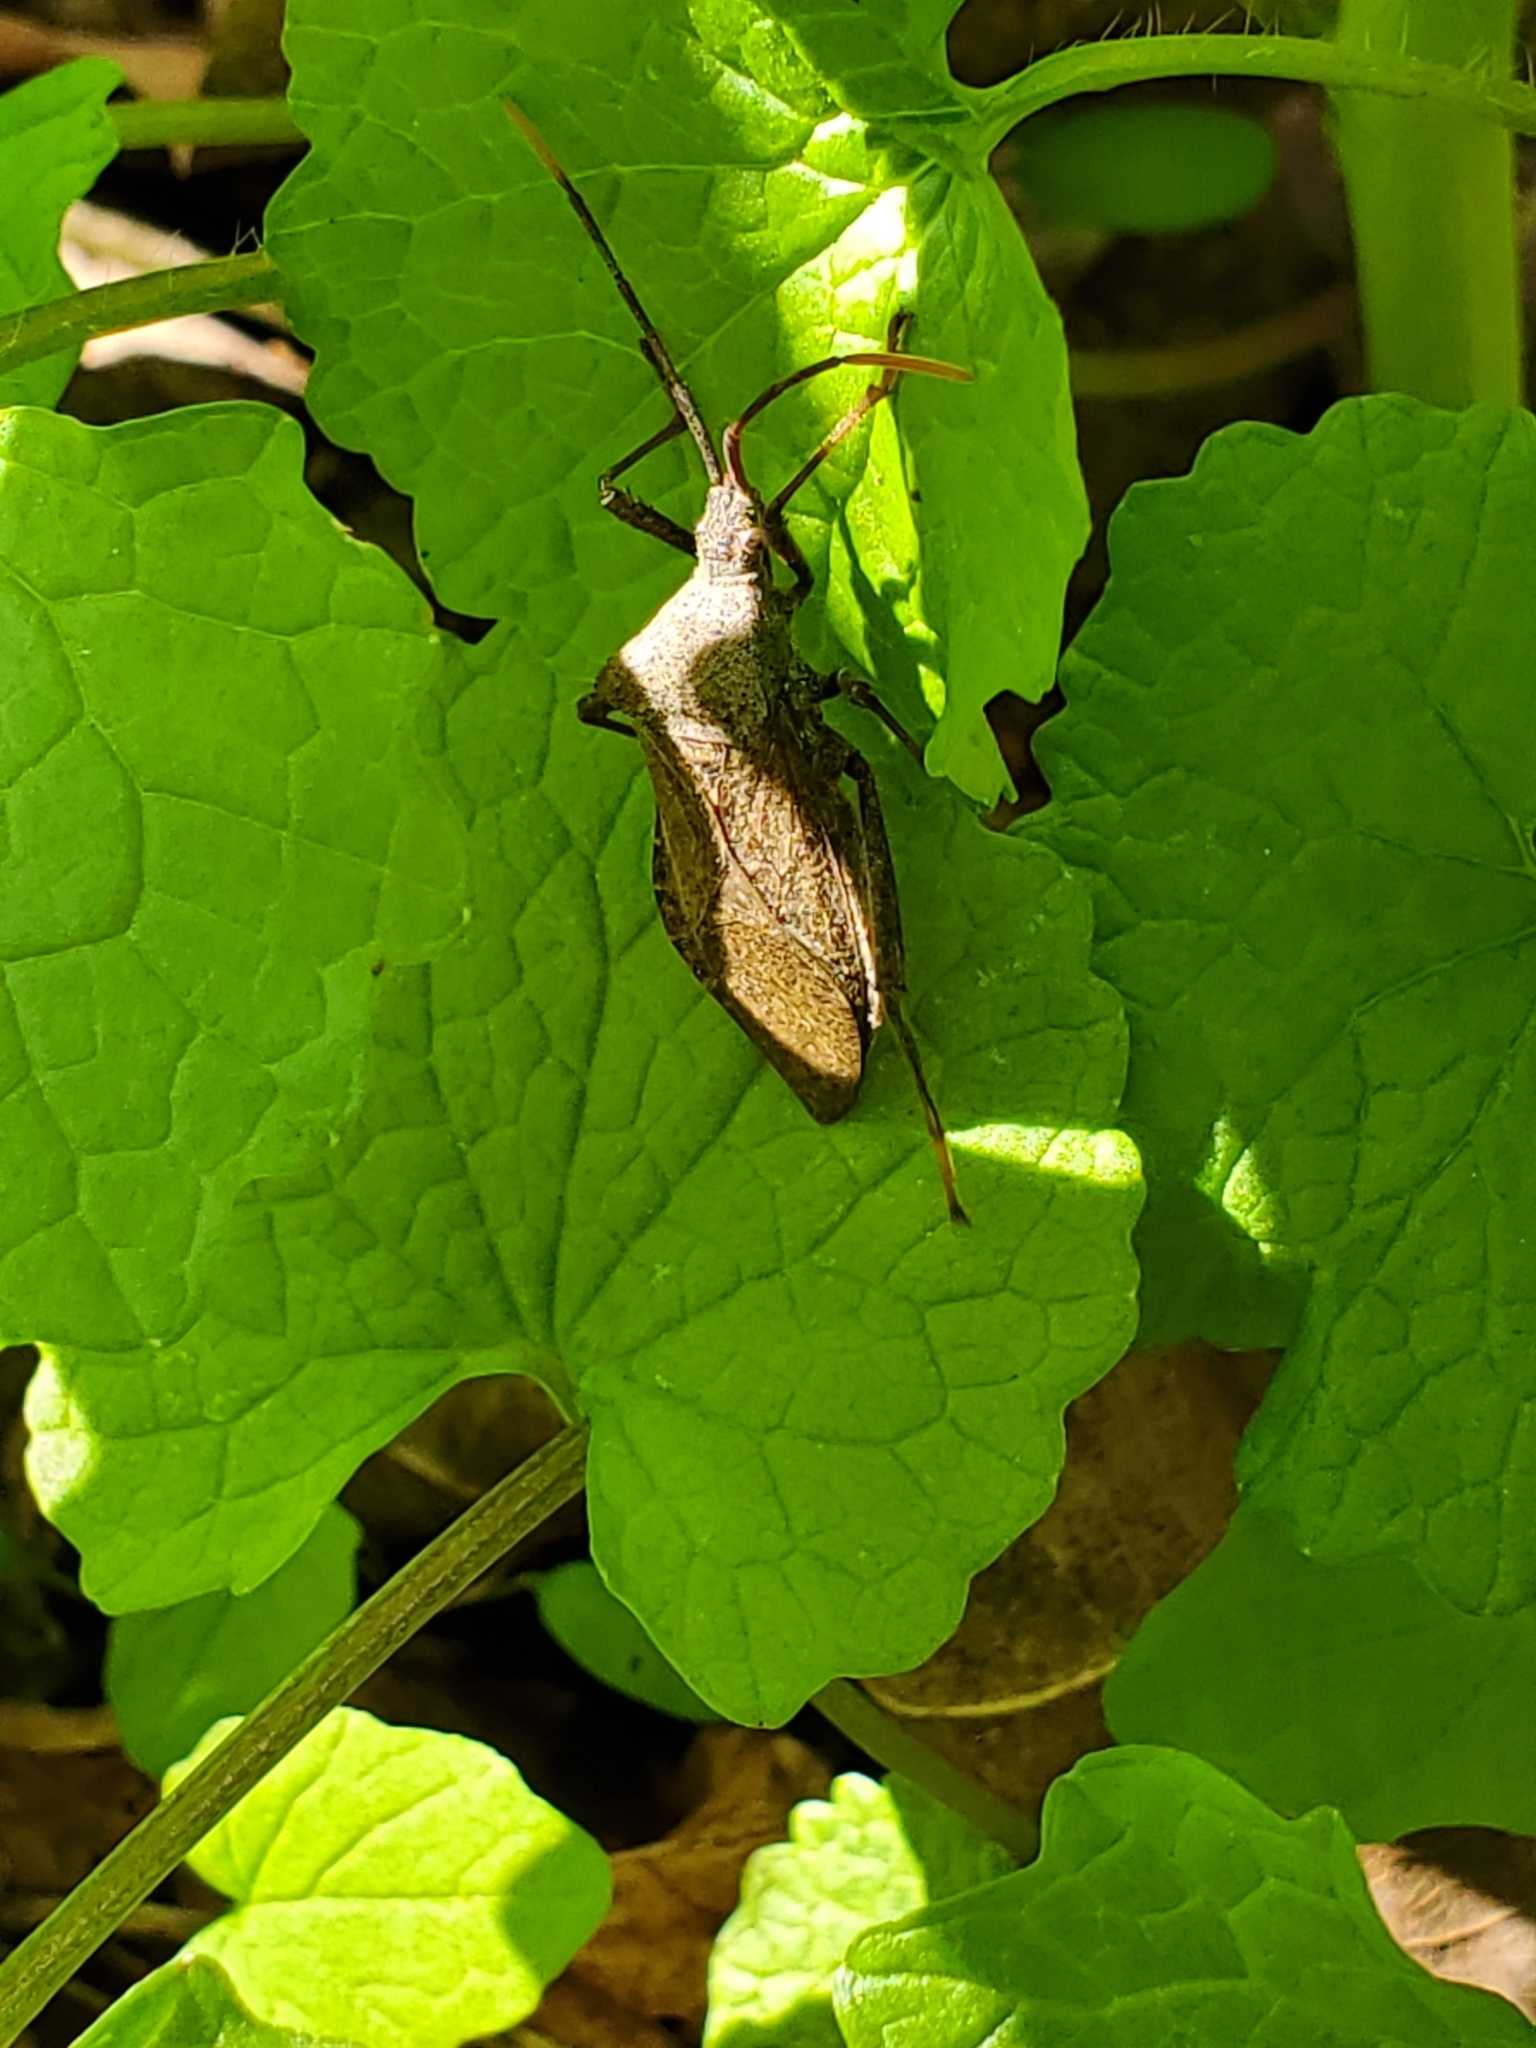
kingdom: Animalia
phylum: Arthropoda
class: Insecta
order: Hemiptera
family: Coreidae
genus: Acanthocephala
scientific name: Acanthocephala terminalis
